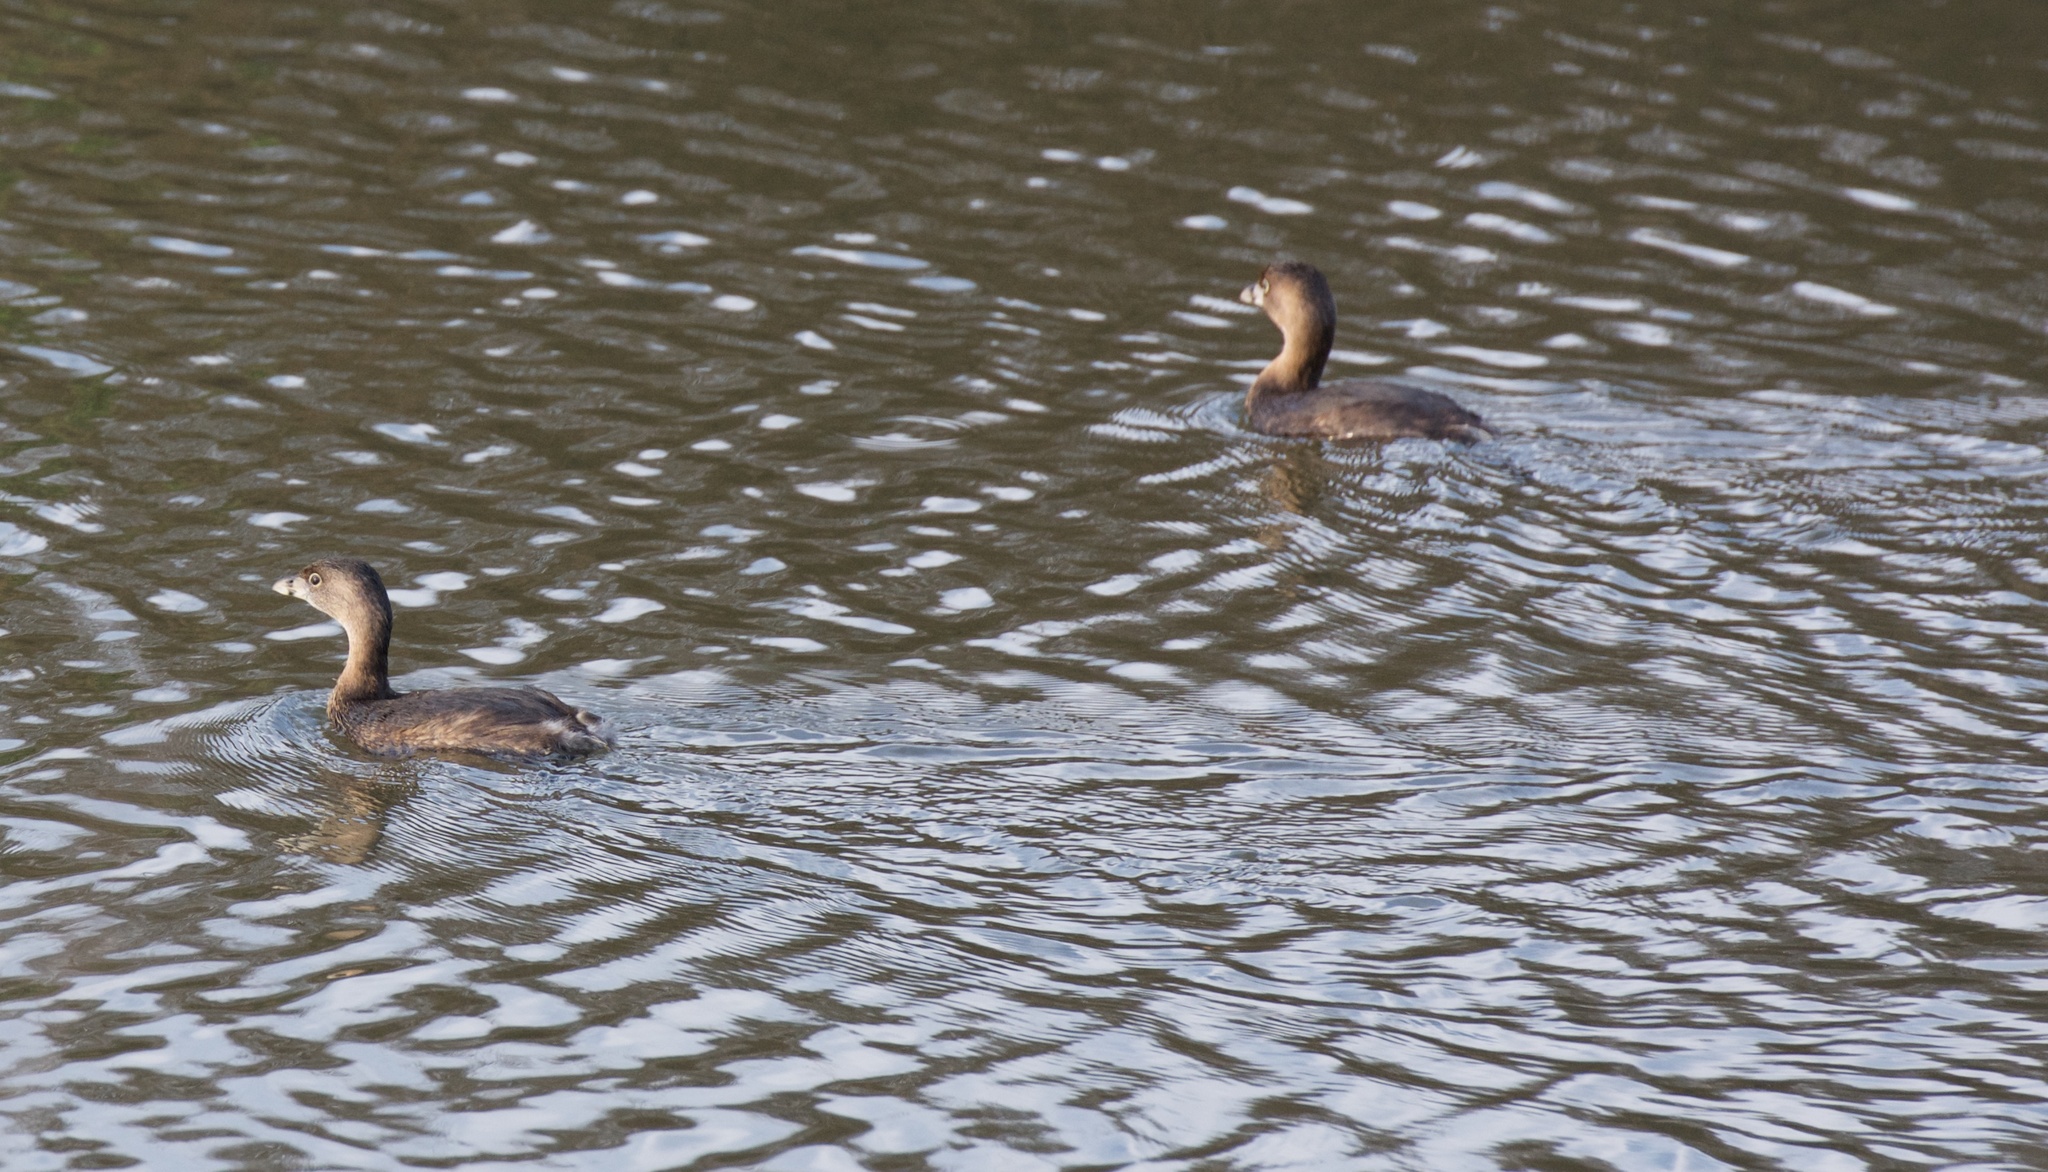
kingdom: Animalia
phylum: Chordata
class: Aves
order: Podicipediformes
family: Podicipedidae
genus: Podilymbus
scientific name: Podilymbus podiceps
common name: Pied-billed grebe
